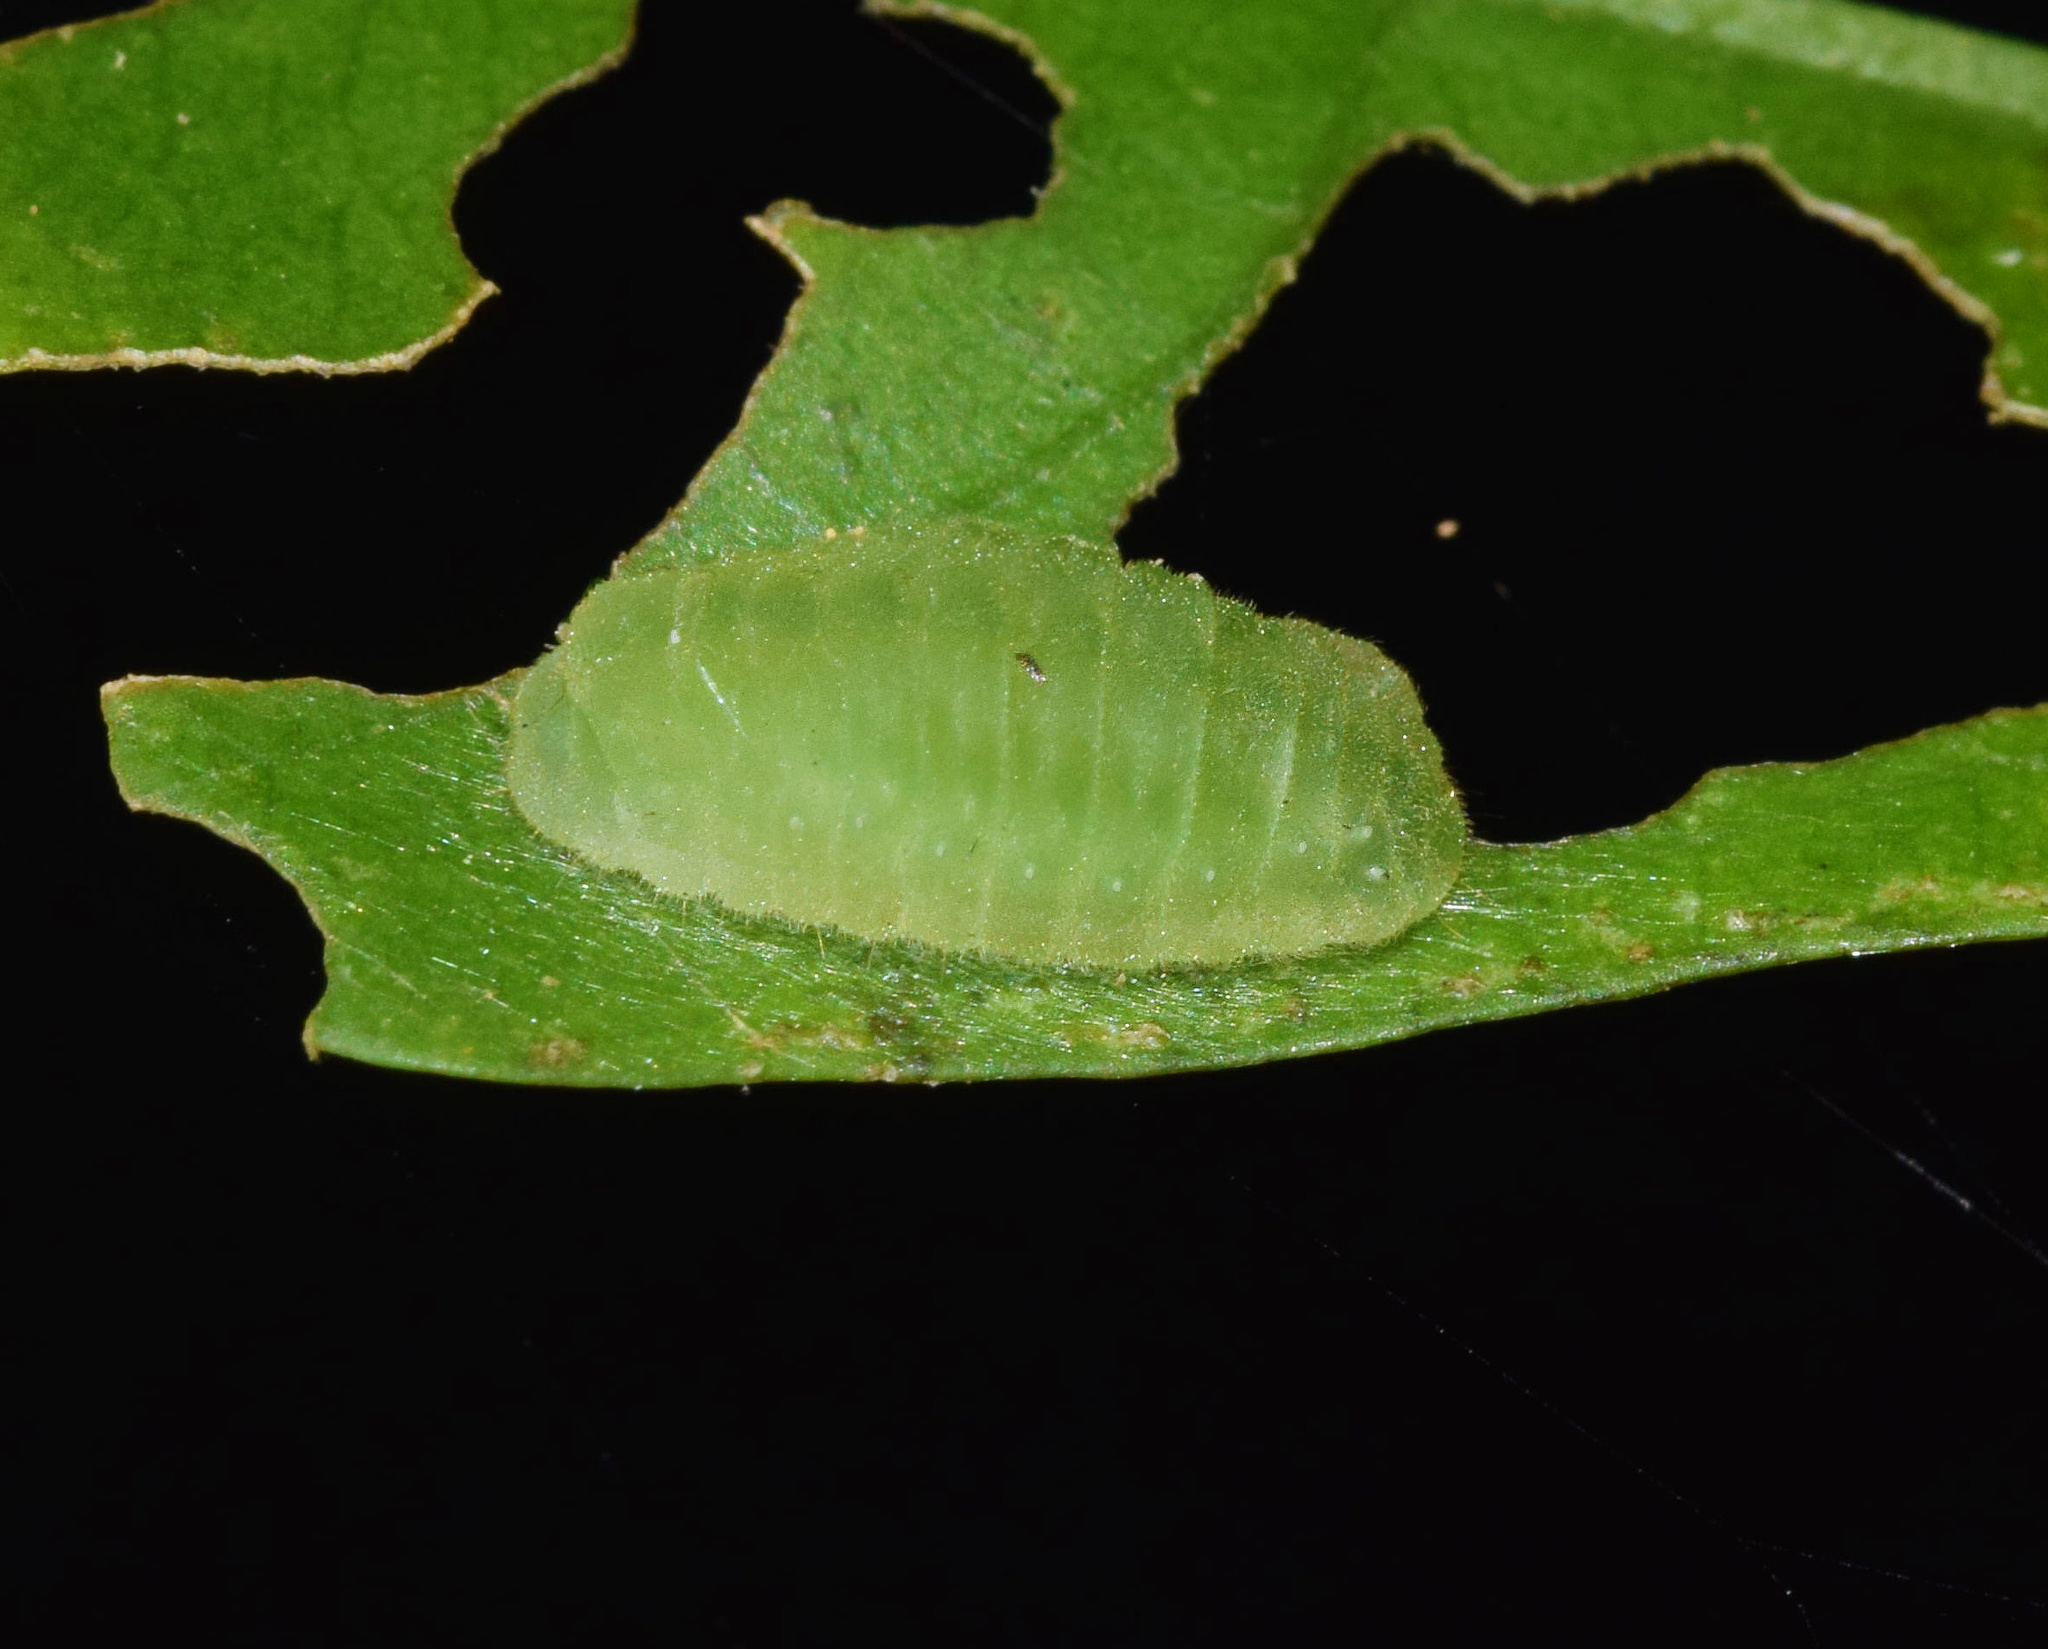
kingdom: Animalia
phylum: Arthropoda
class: Insecta
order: Lepidoptera
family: Lycaenidae
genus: Anthene
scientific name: Anthene larydas
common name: Forest hairtail
